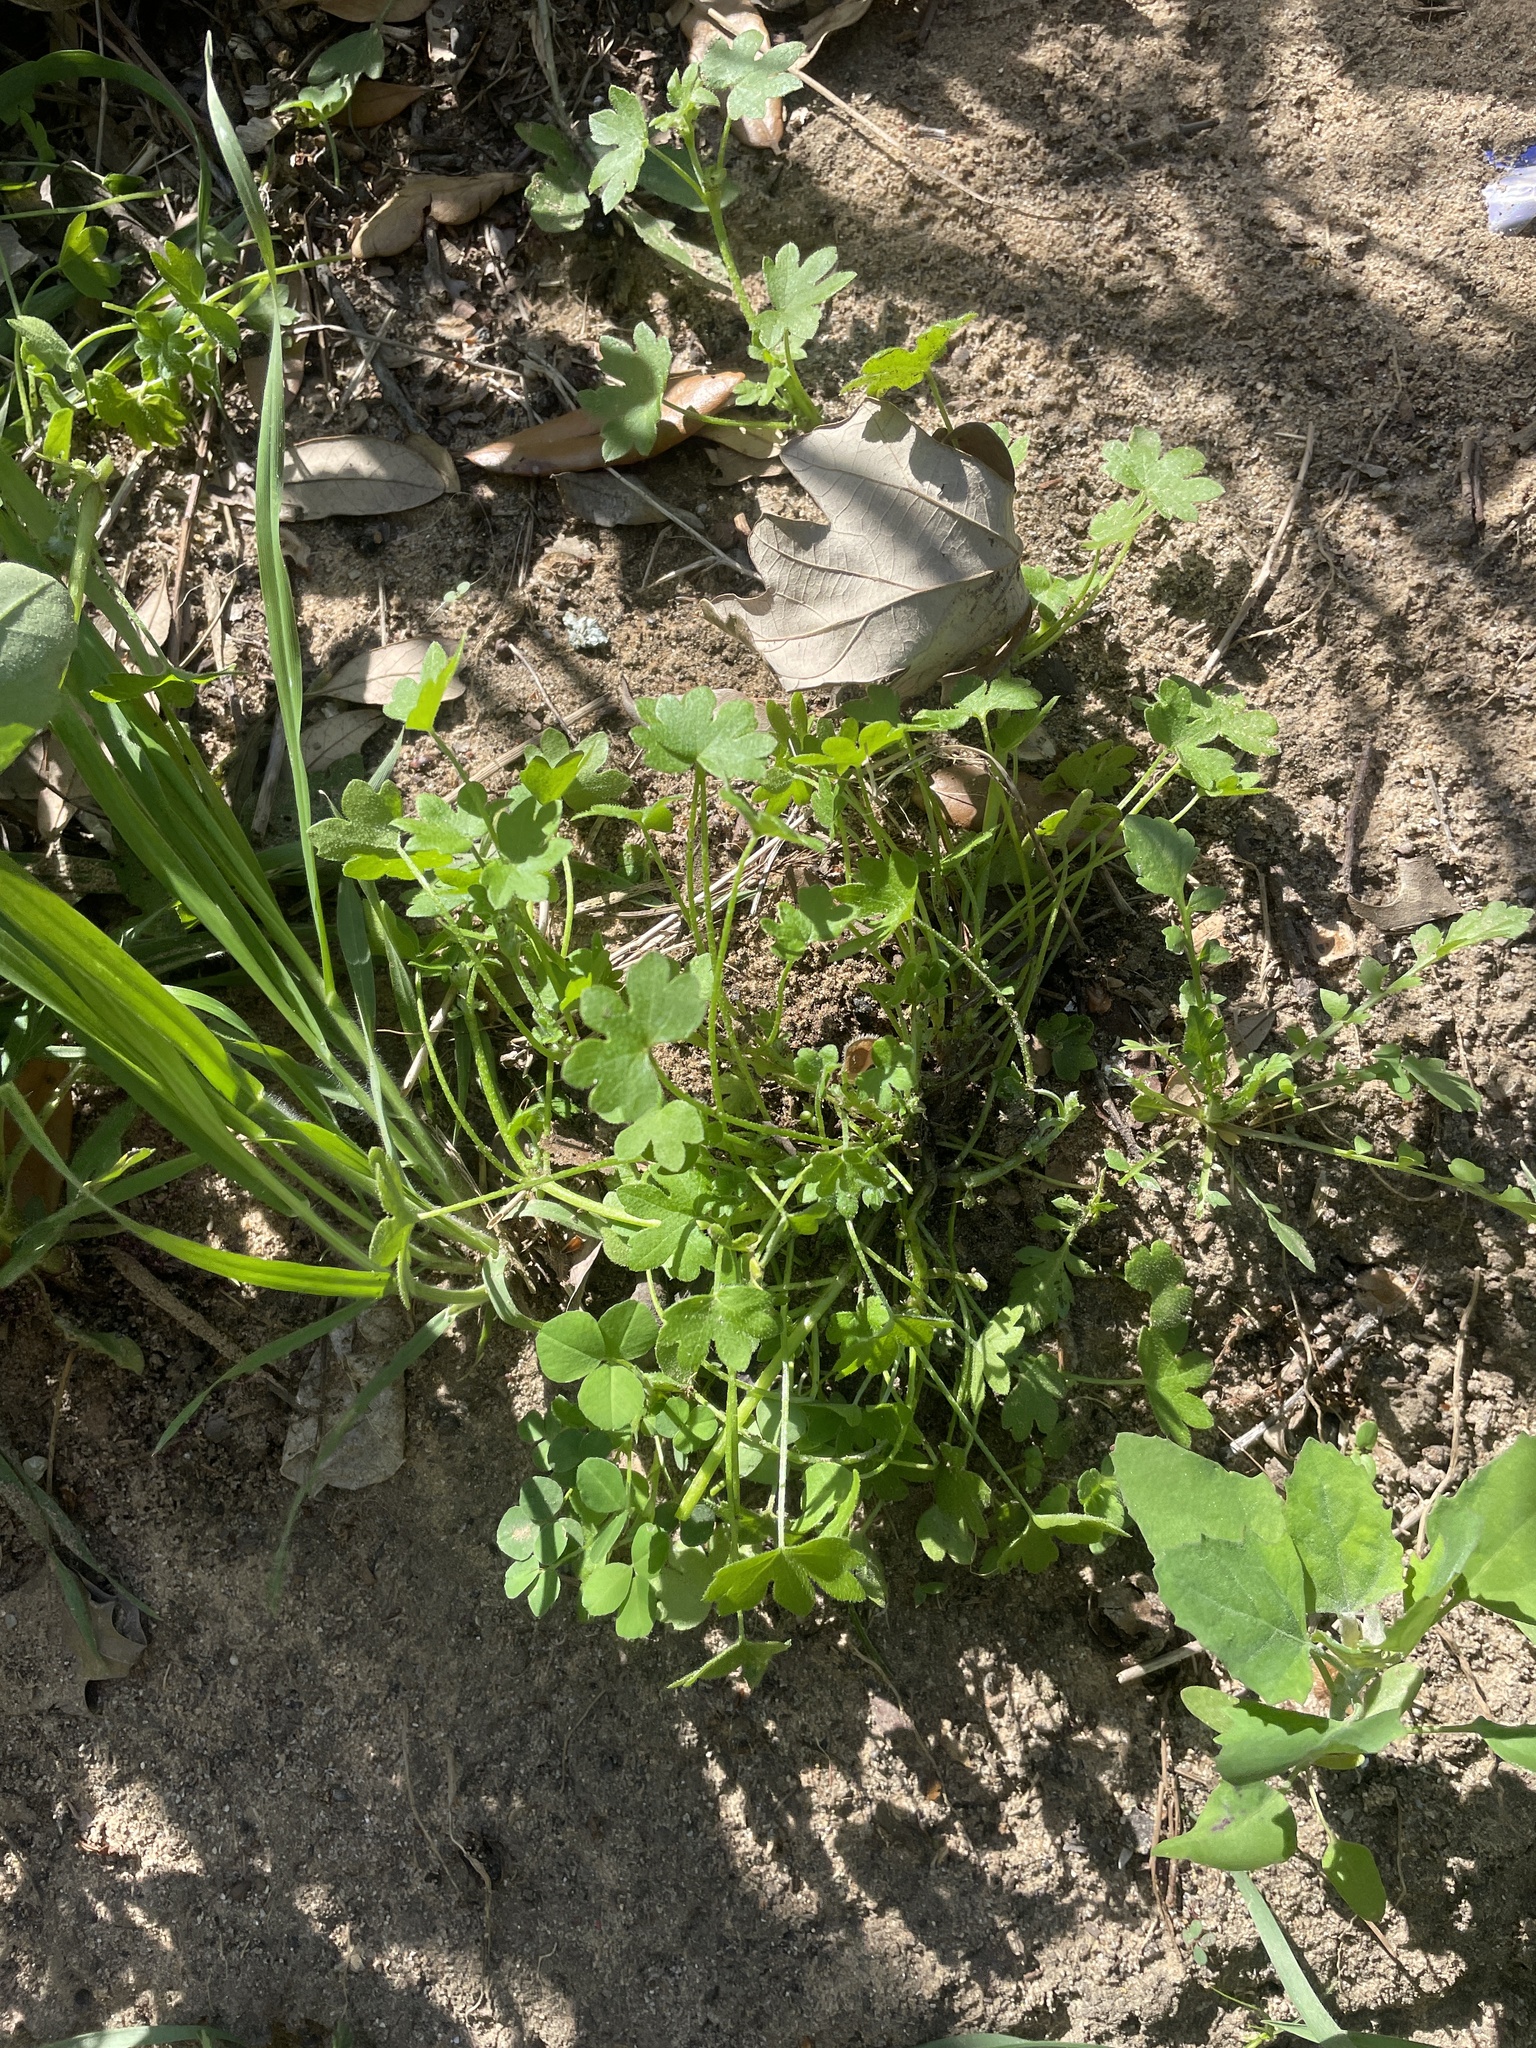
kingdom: Plantae
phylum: Tracheophyta
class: Magnoliopsida
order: Apiales
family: Apiaceae
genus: Bowlesia
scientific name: Bowlesia incana
